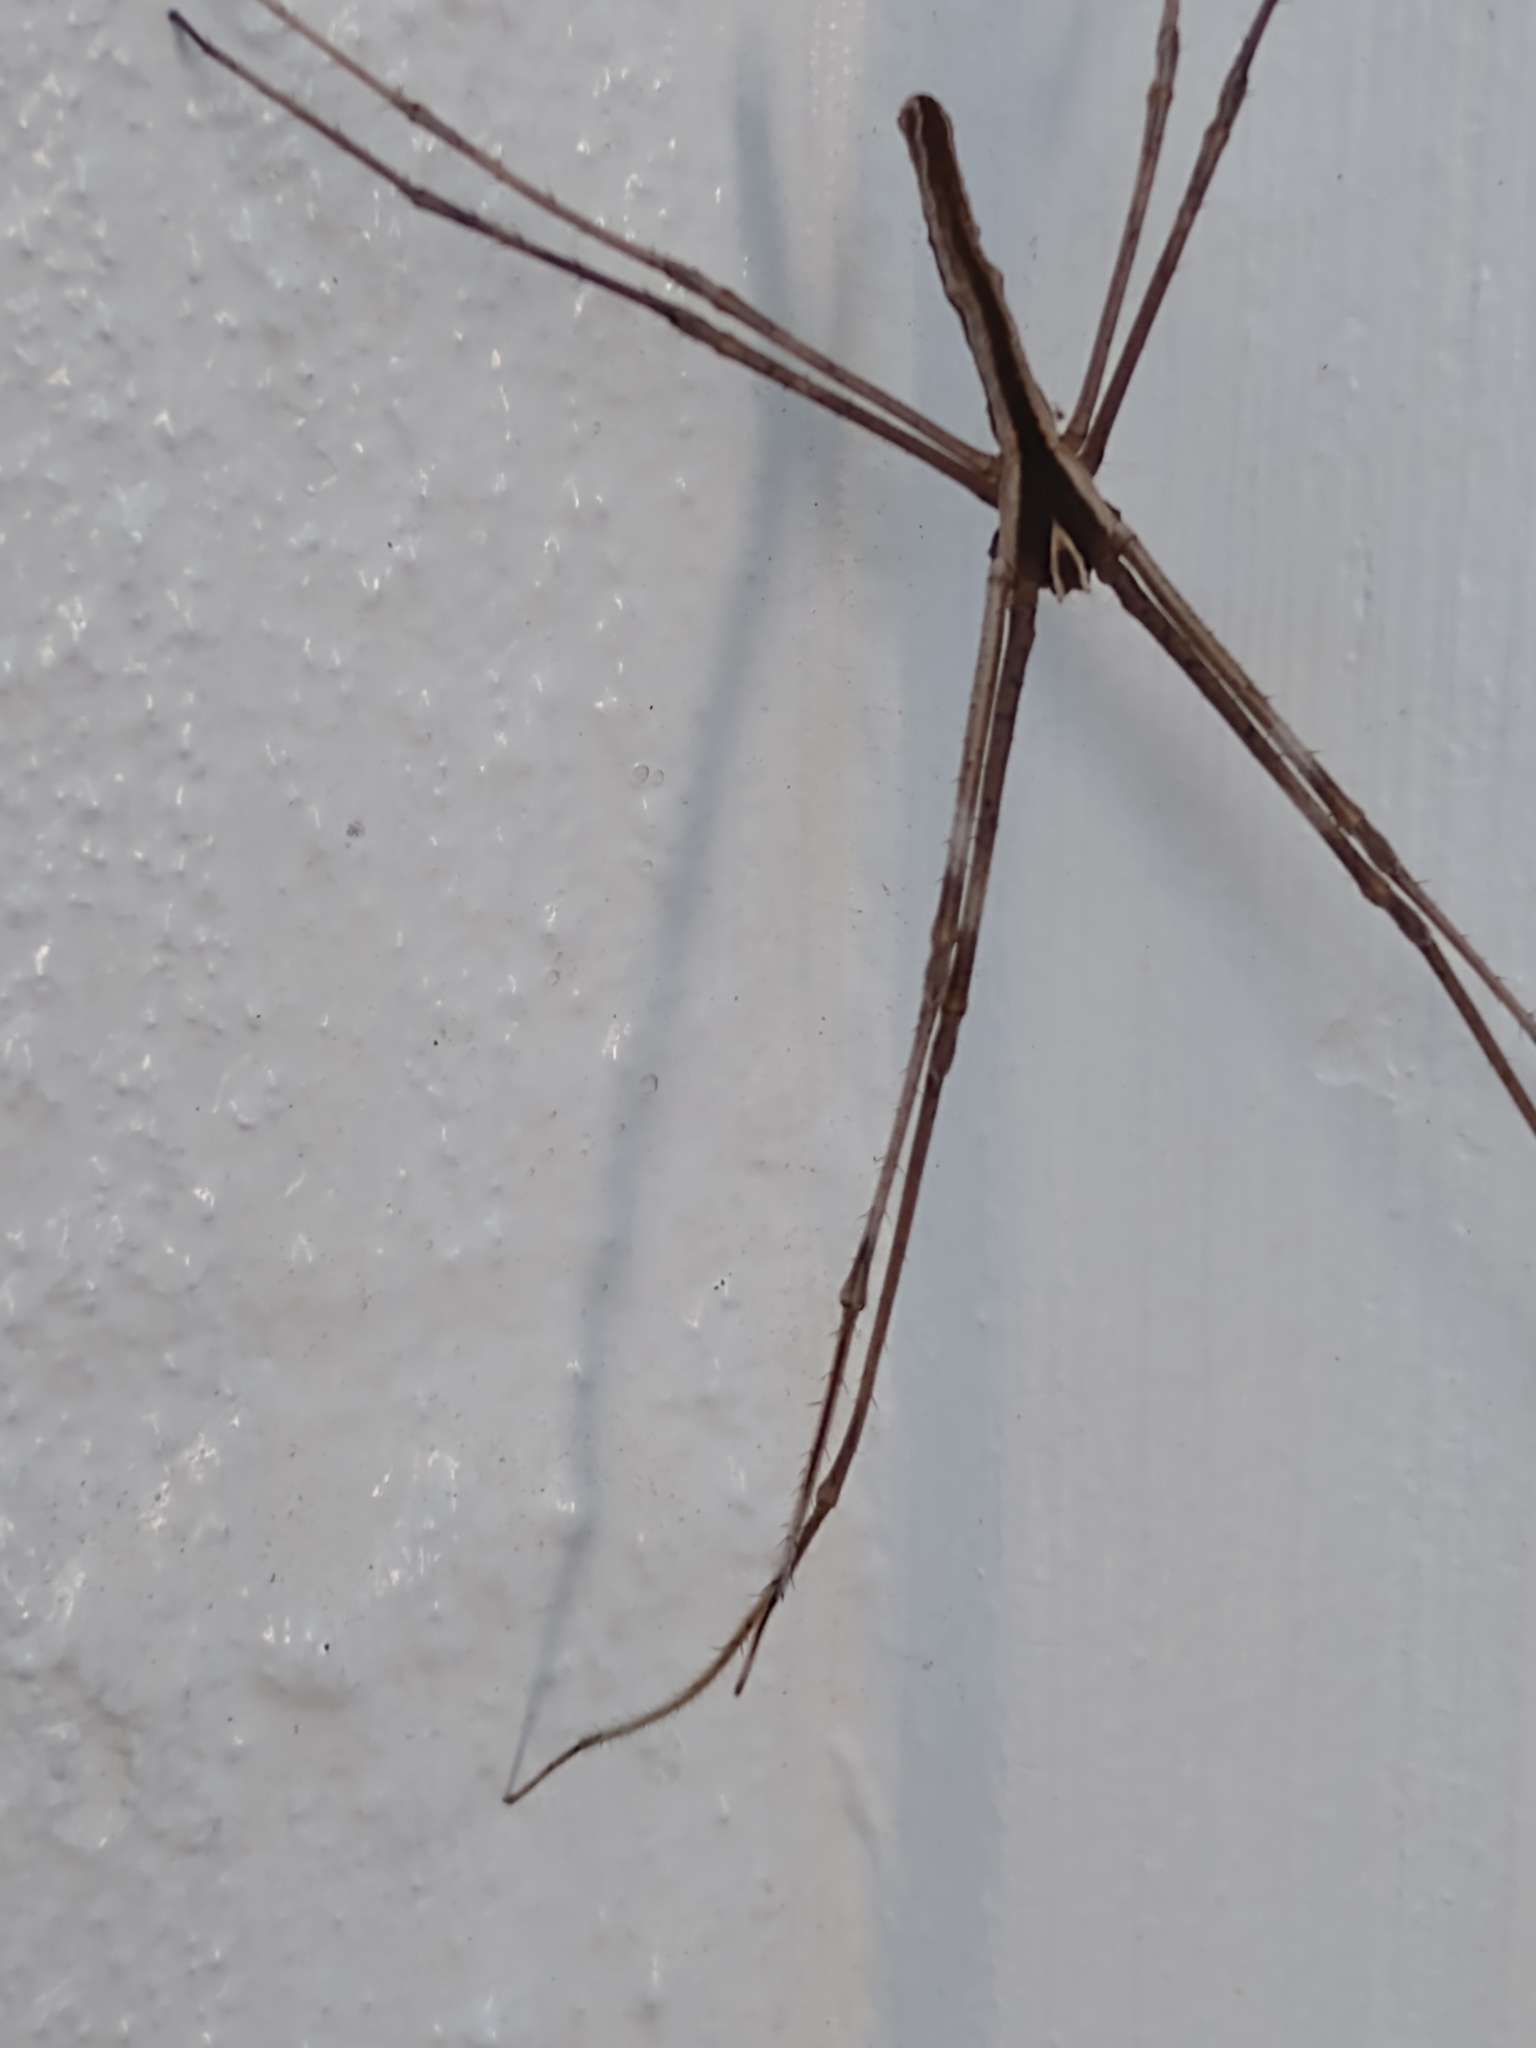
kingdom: Animalia
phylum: Arthropoda
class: Arachnida
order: Araneae
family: Deinopidae
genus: Deinopis
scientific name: Deinopis subrufa
